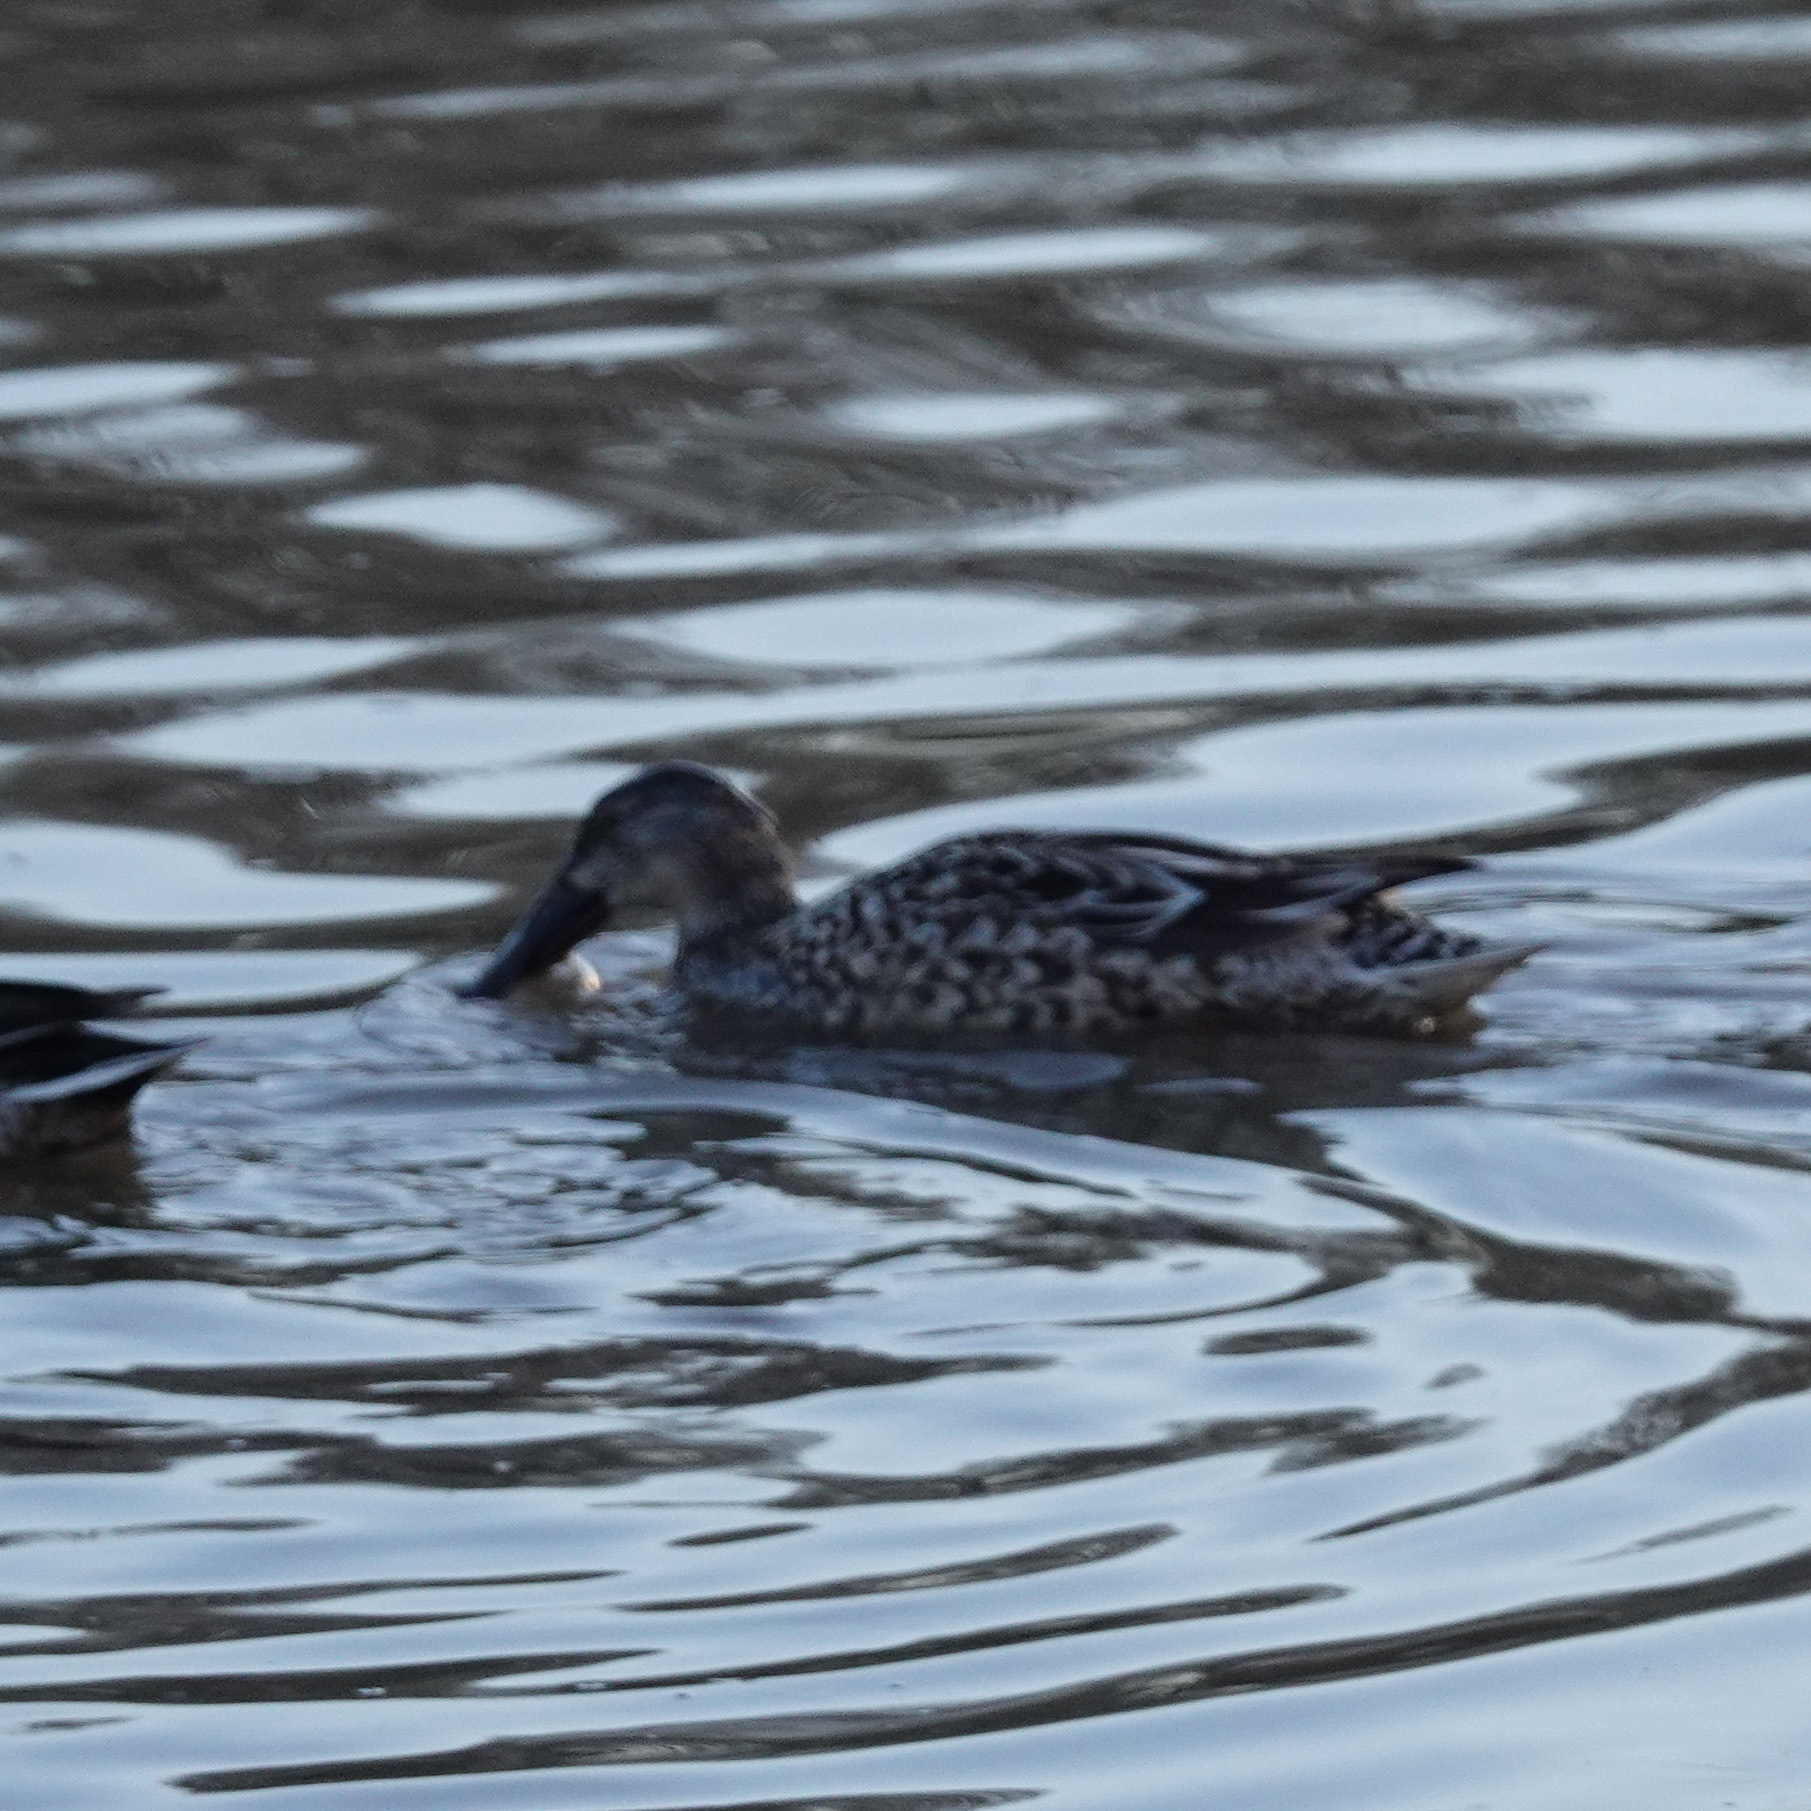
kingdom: Animalia
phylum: Chordata
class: Aves
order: Anseriformes
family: Anatidae
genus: Spatula
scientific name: Spatula clypeata
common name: Northern shoveler
